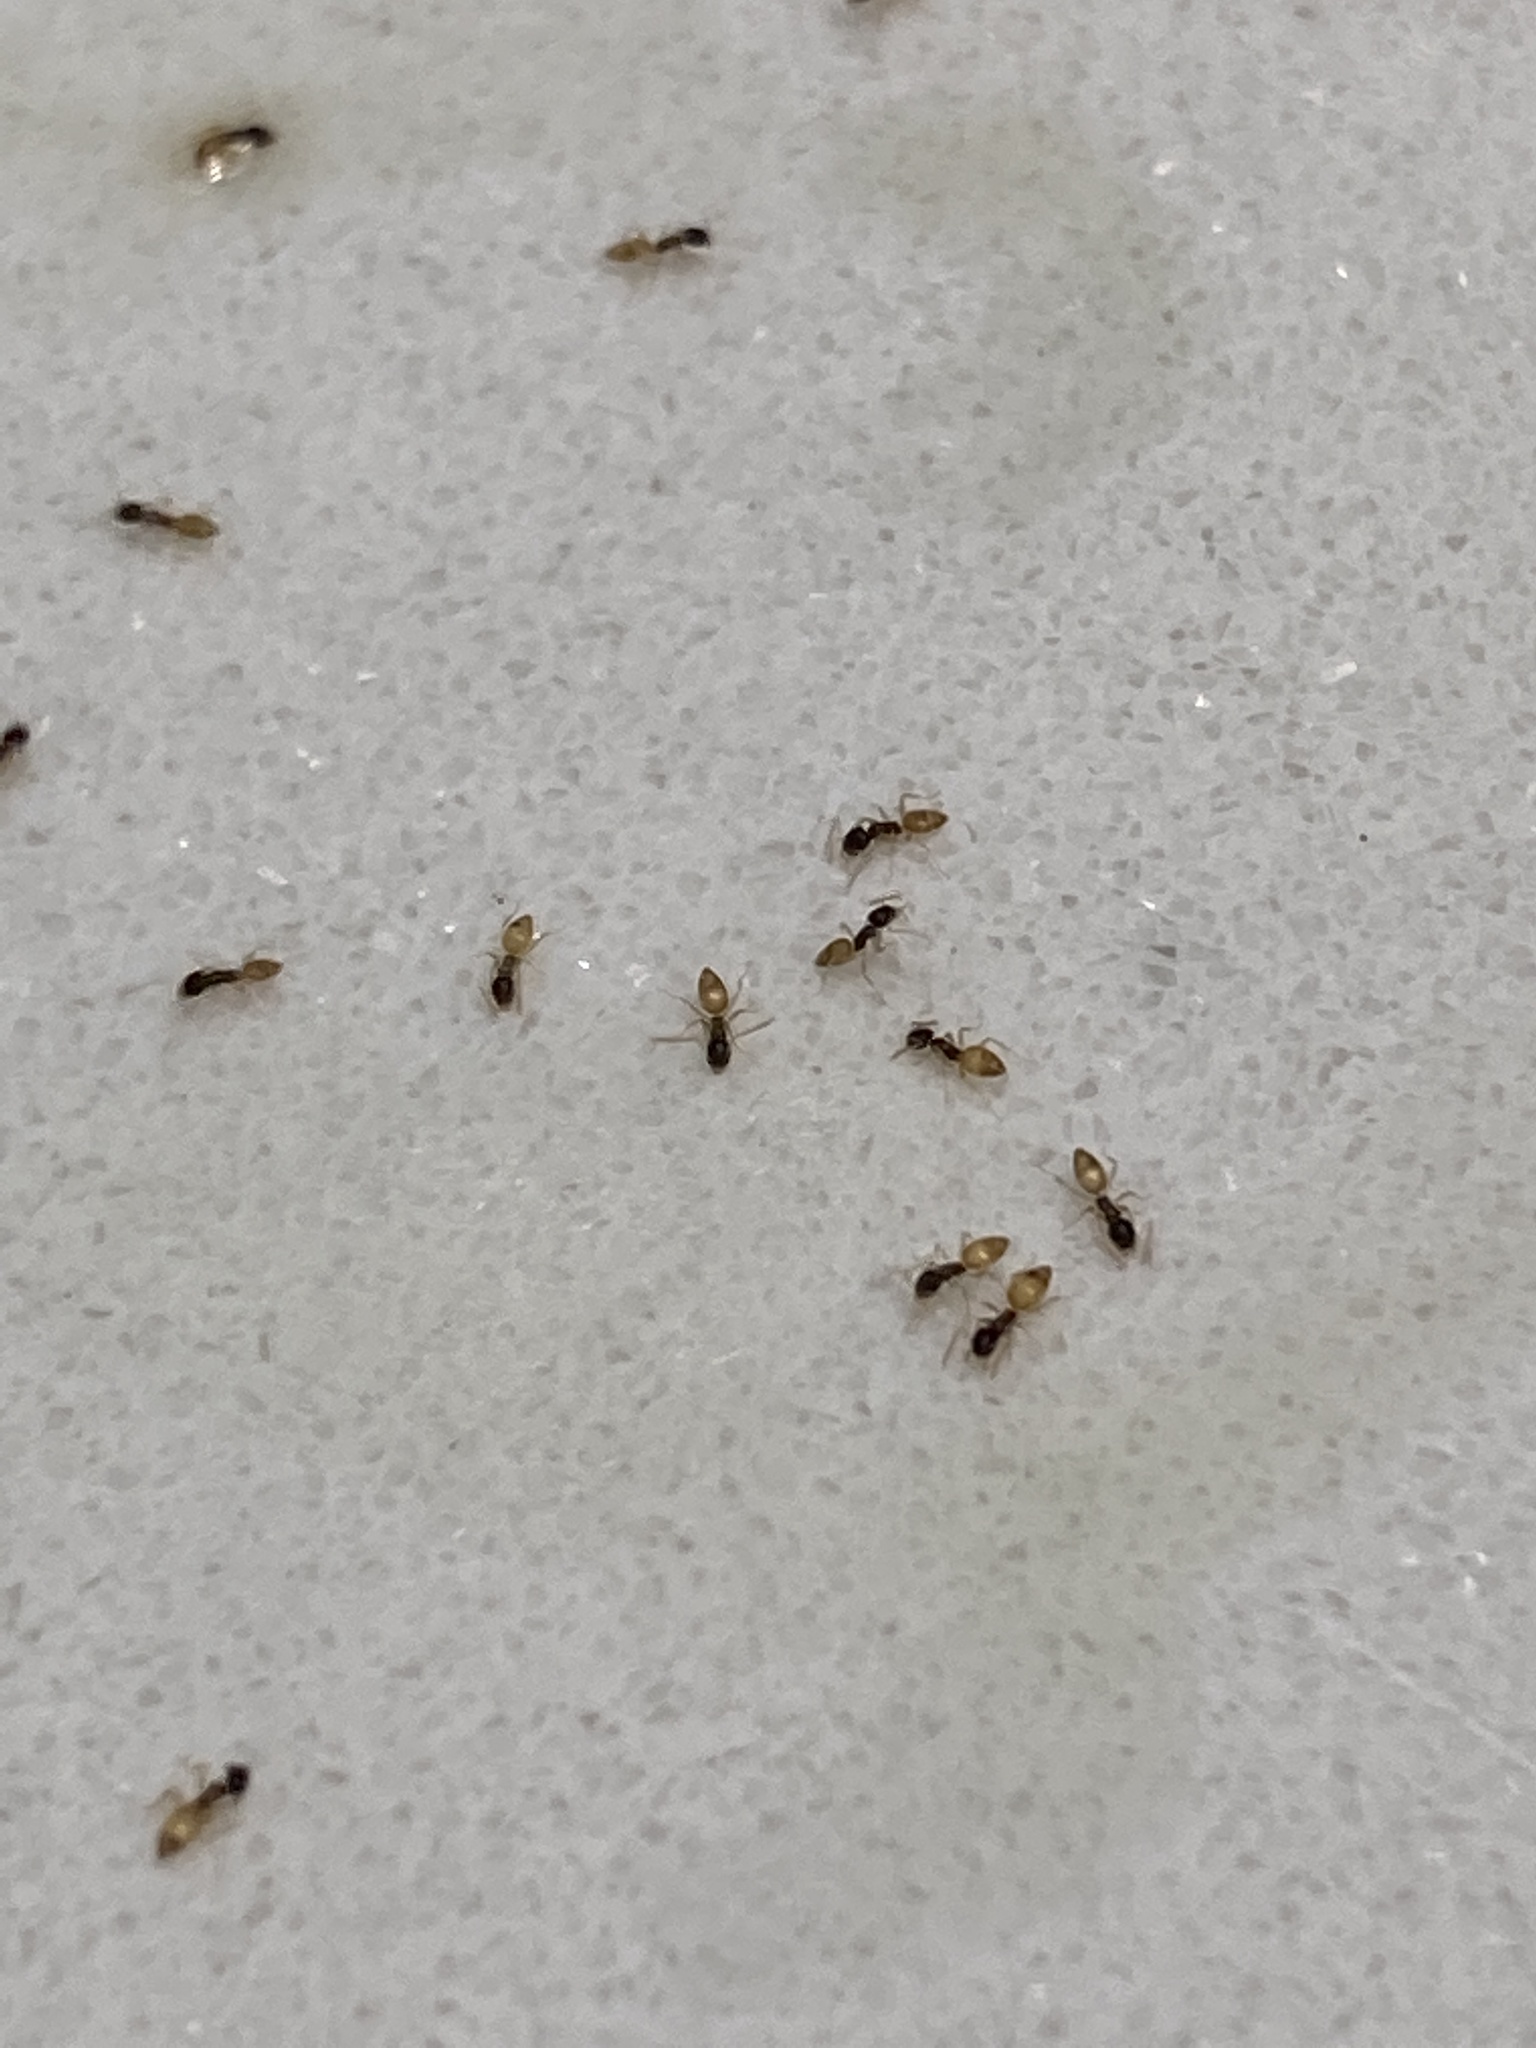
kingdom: Animalia
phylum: Arthropoda
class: Insecta
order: Hymenoptera
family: Formicidae
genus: Tapinoma
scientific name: Tapinoma melanocephalum
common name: Ghost ant
